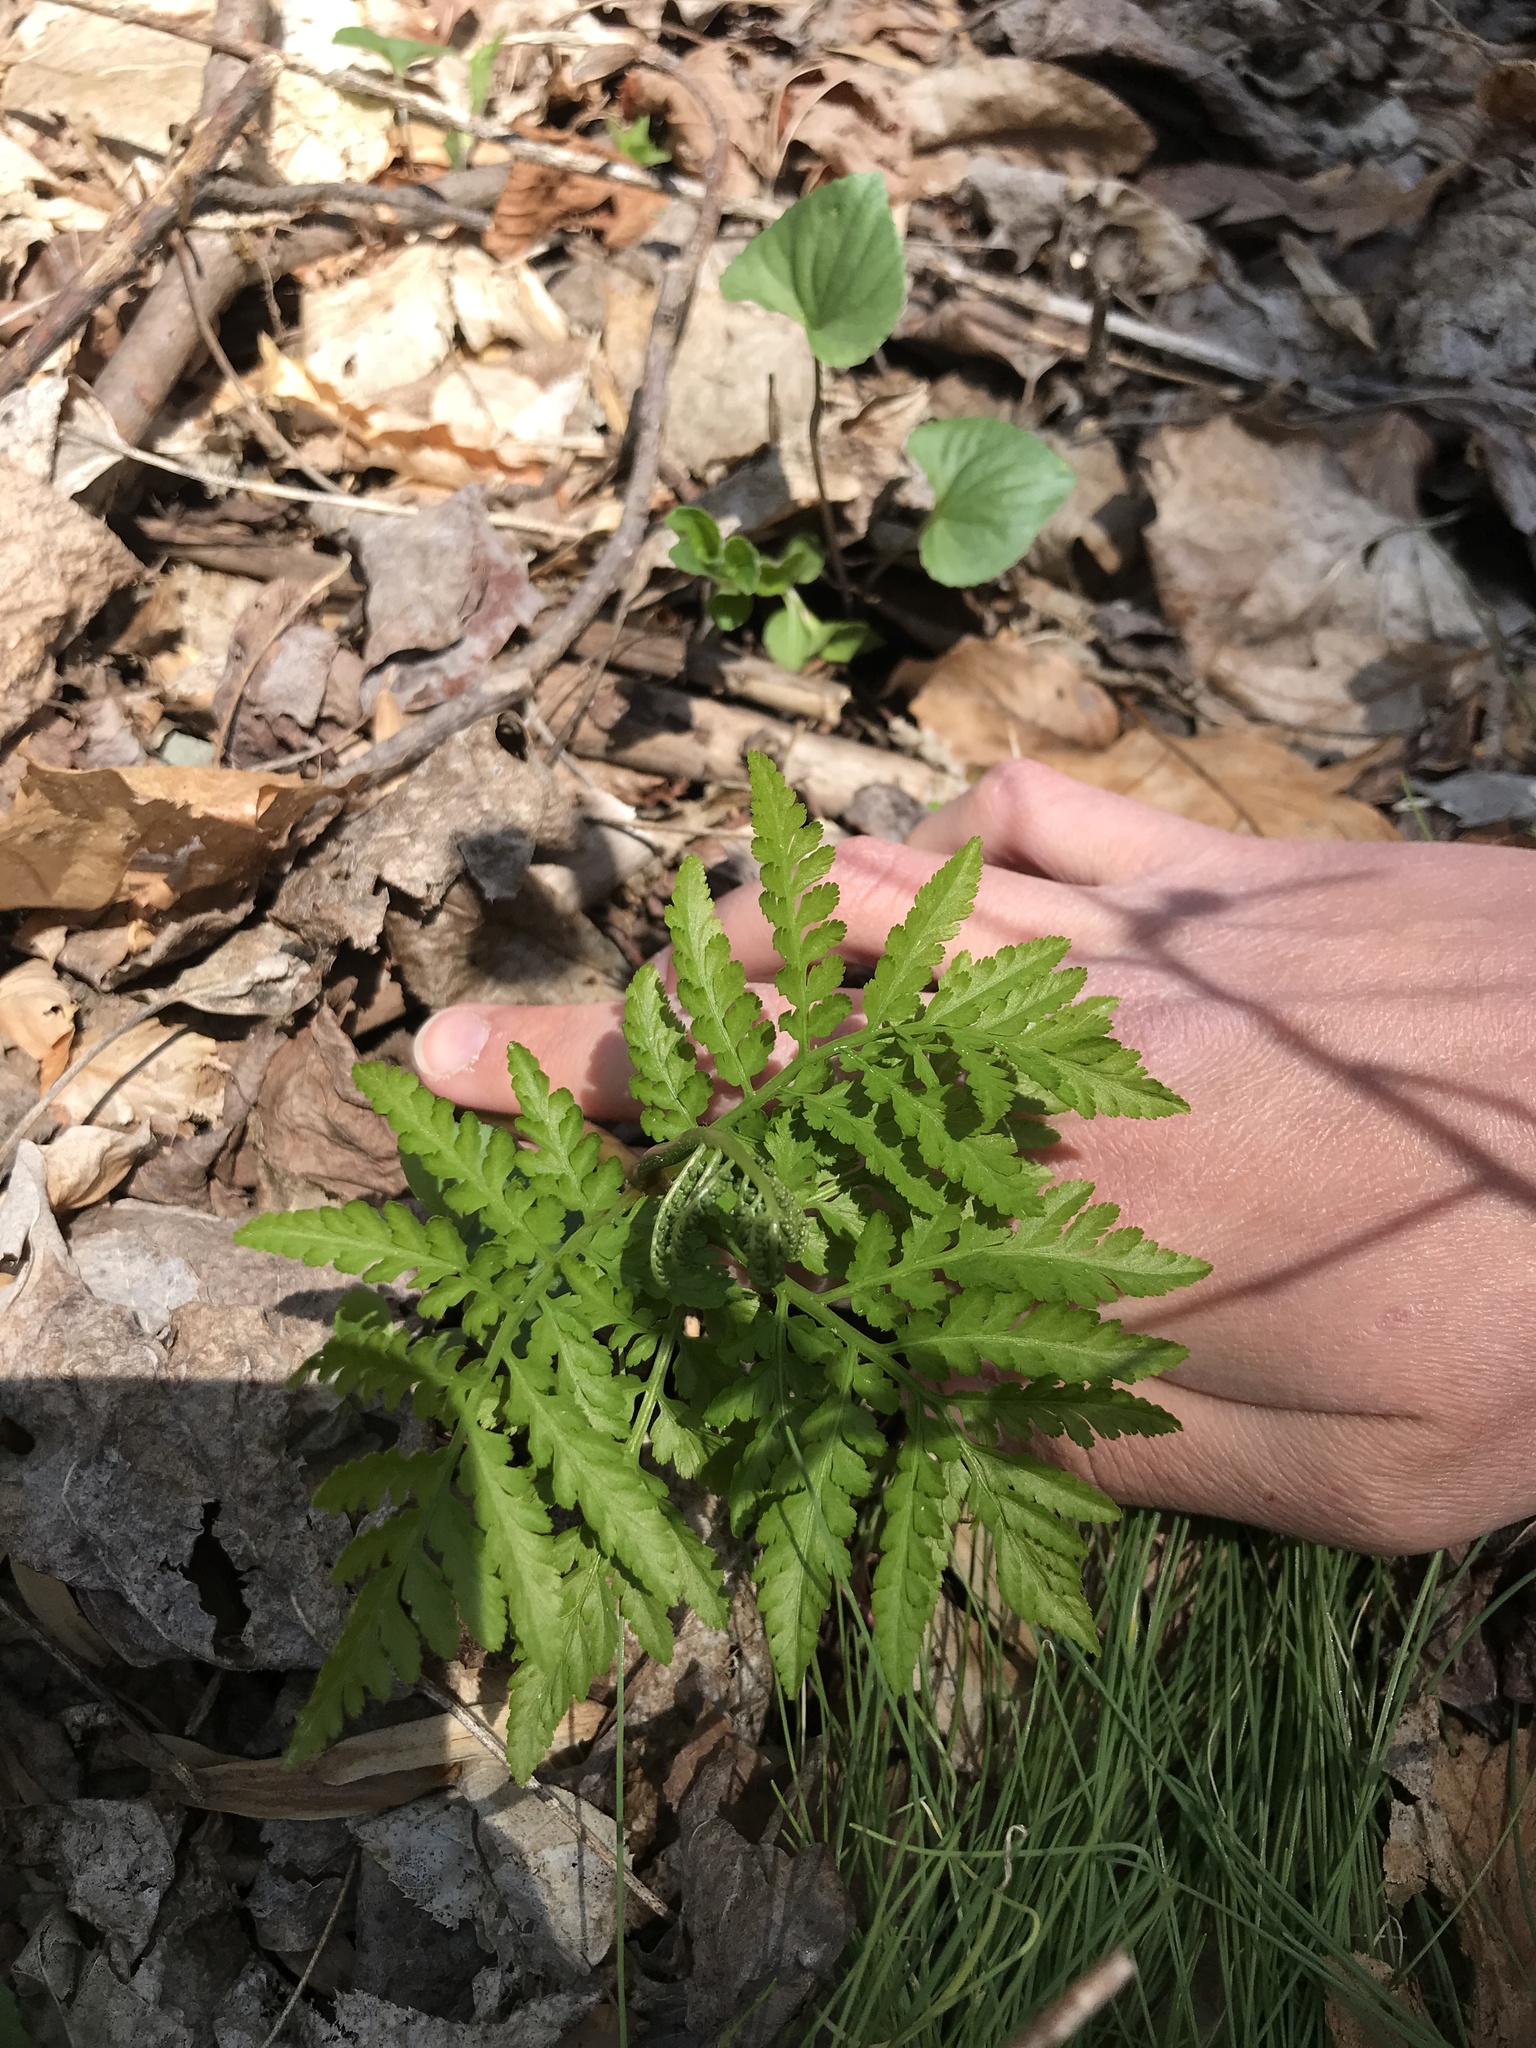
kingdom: Plantae
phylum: Tracheophyta
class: Polypodiopsida
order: Ophioglossales
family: Ophioglossaceae
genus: Botrypus
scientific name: Botrypus virginianus
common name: Common grapefern
